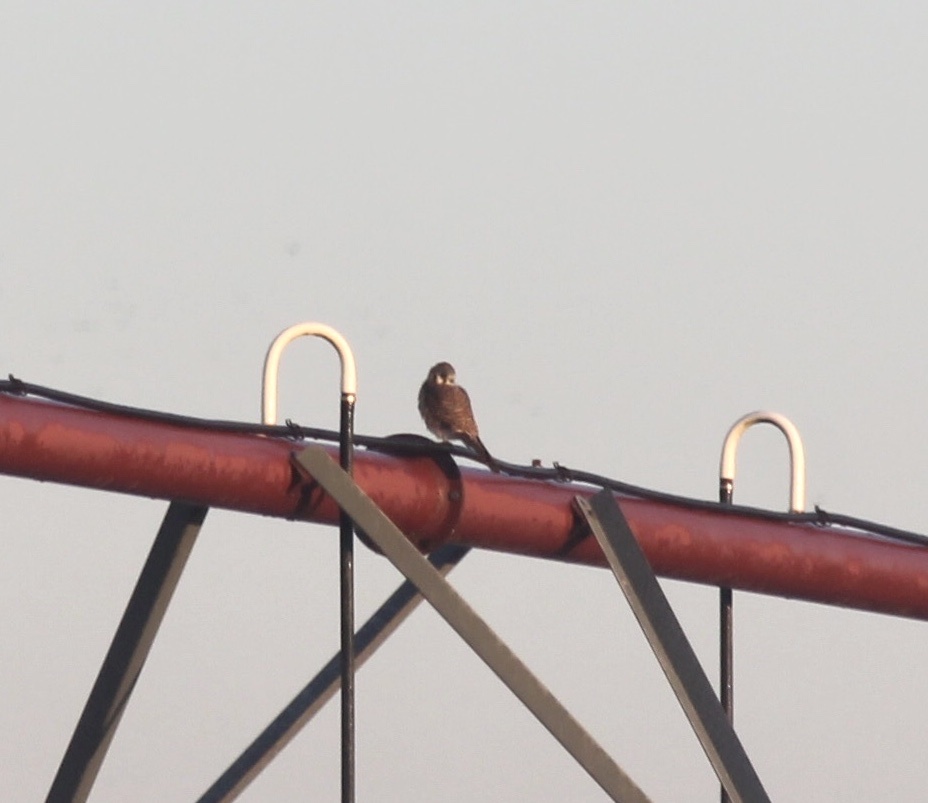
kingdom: Animalia
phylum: Chordata
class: Aves
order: Falconiformes
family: Falconidae
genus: Falco
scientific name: Falco sparverius
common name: American kestrel
